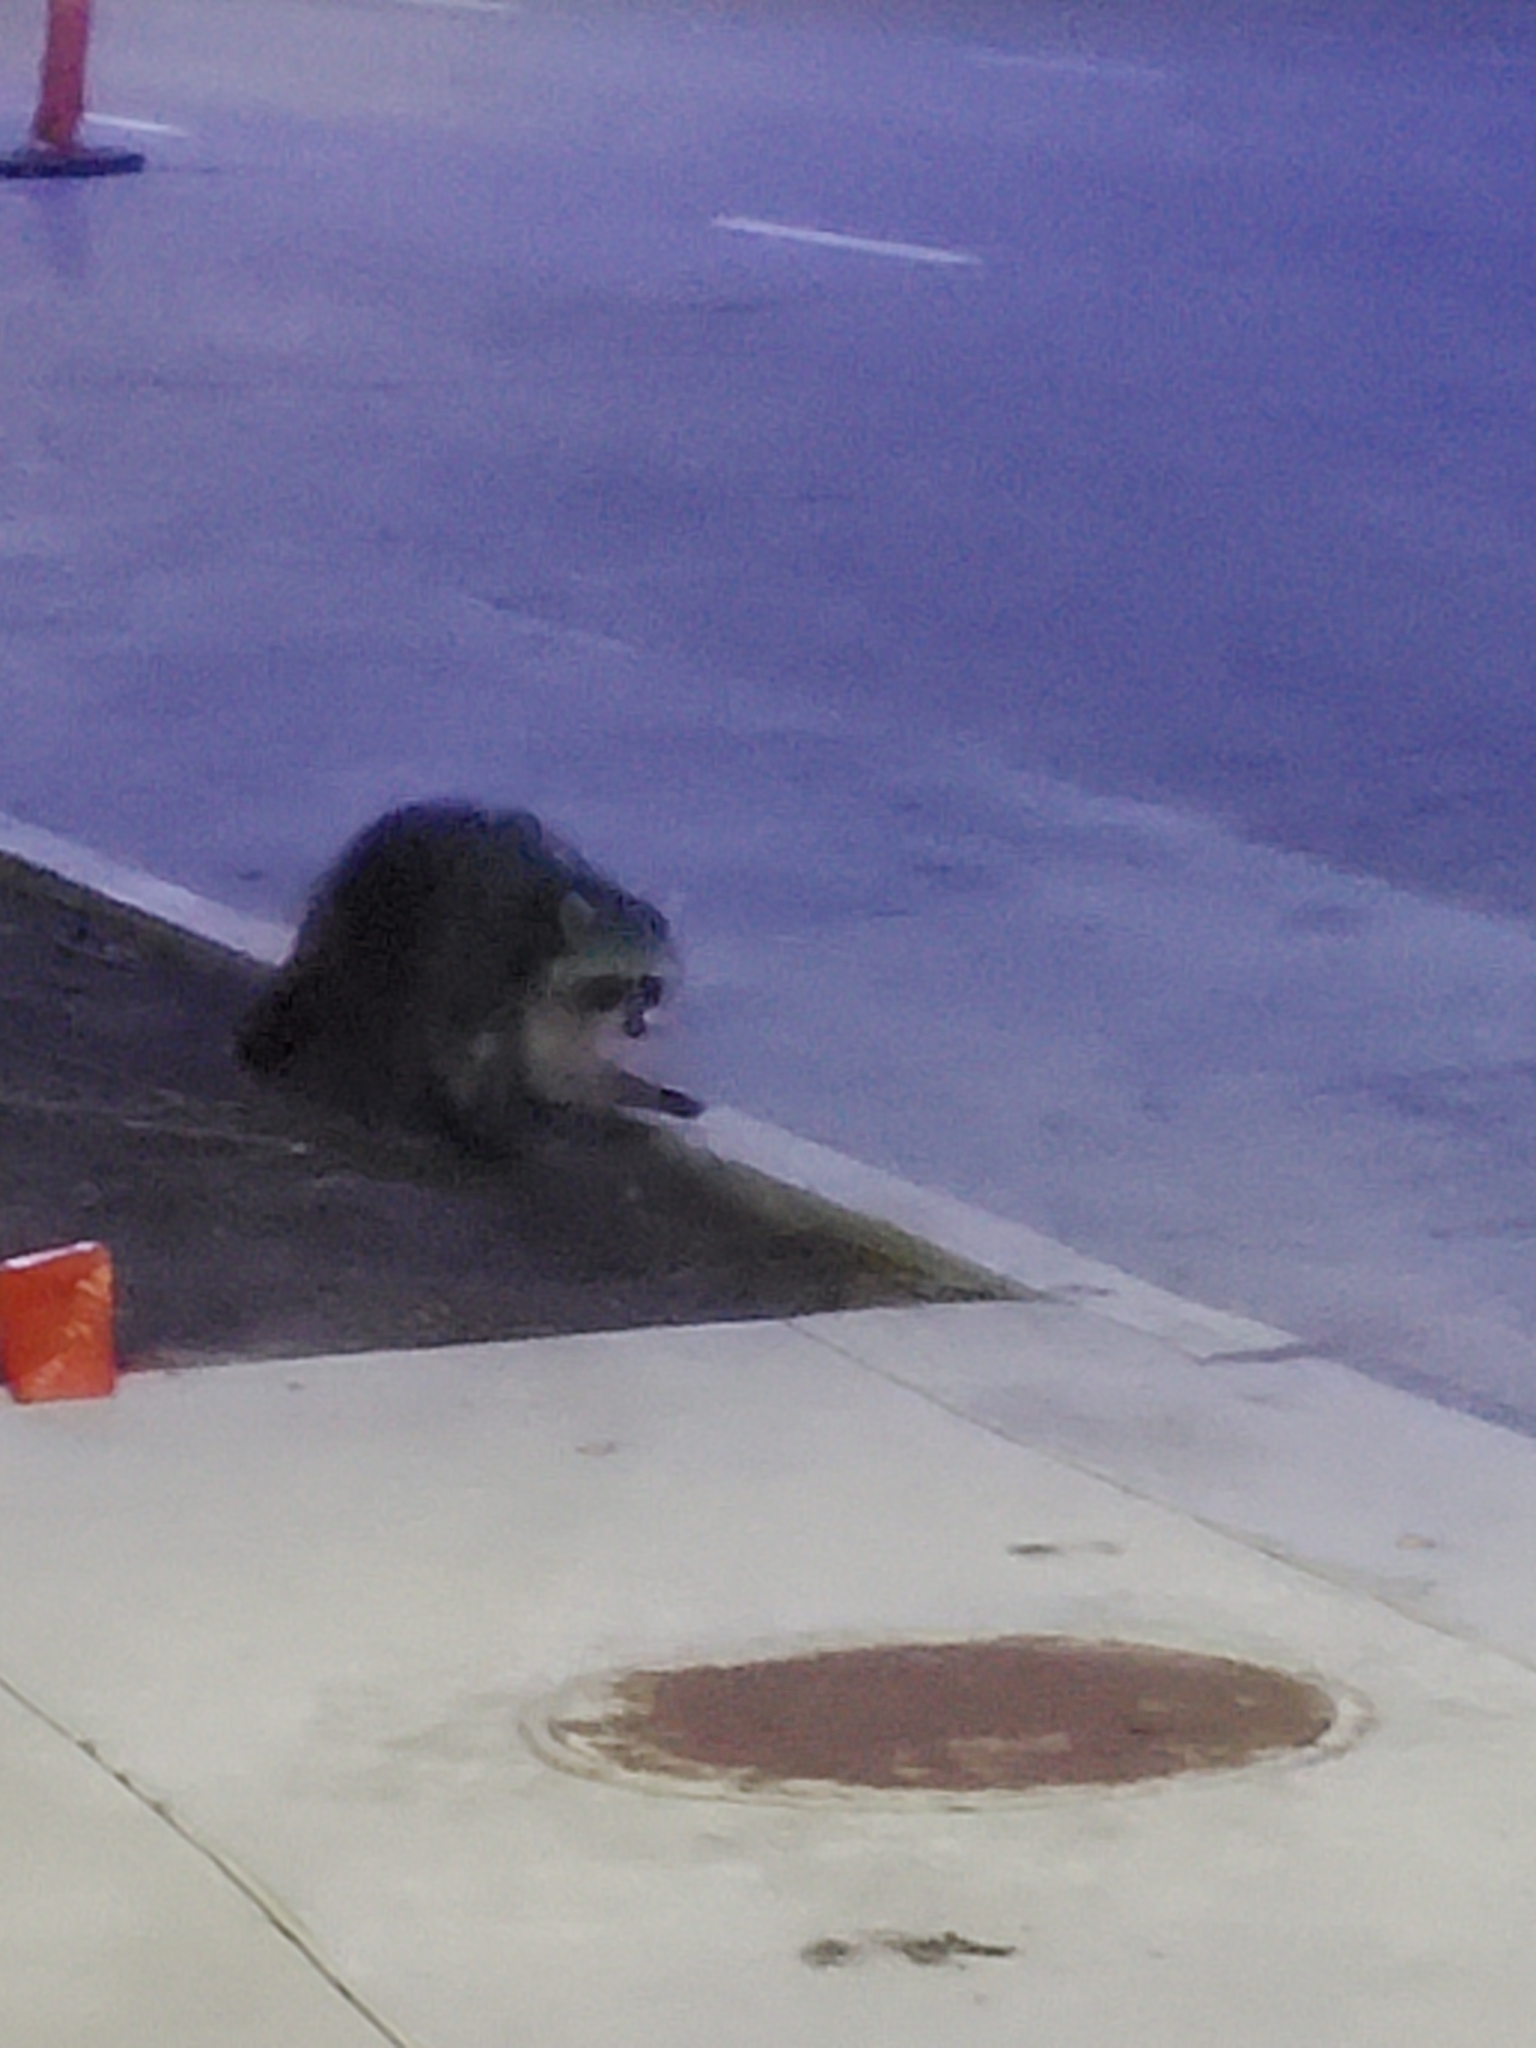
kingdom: Animalia
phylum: Chordata
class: Mammalia
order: Carnivora
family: Procyonidae
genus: Procyon
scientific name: Procyon lotor
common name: Raccoon
